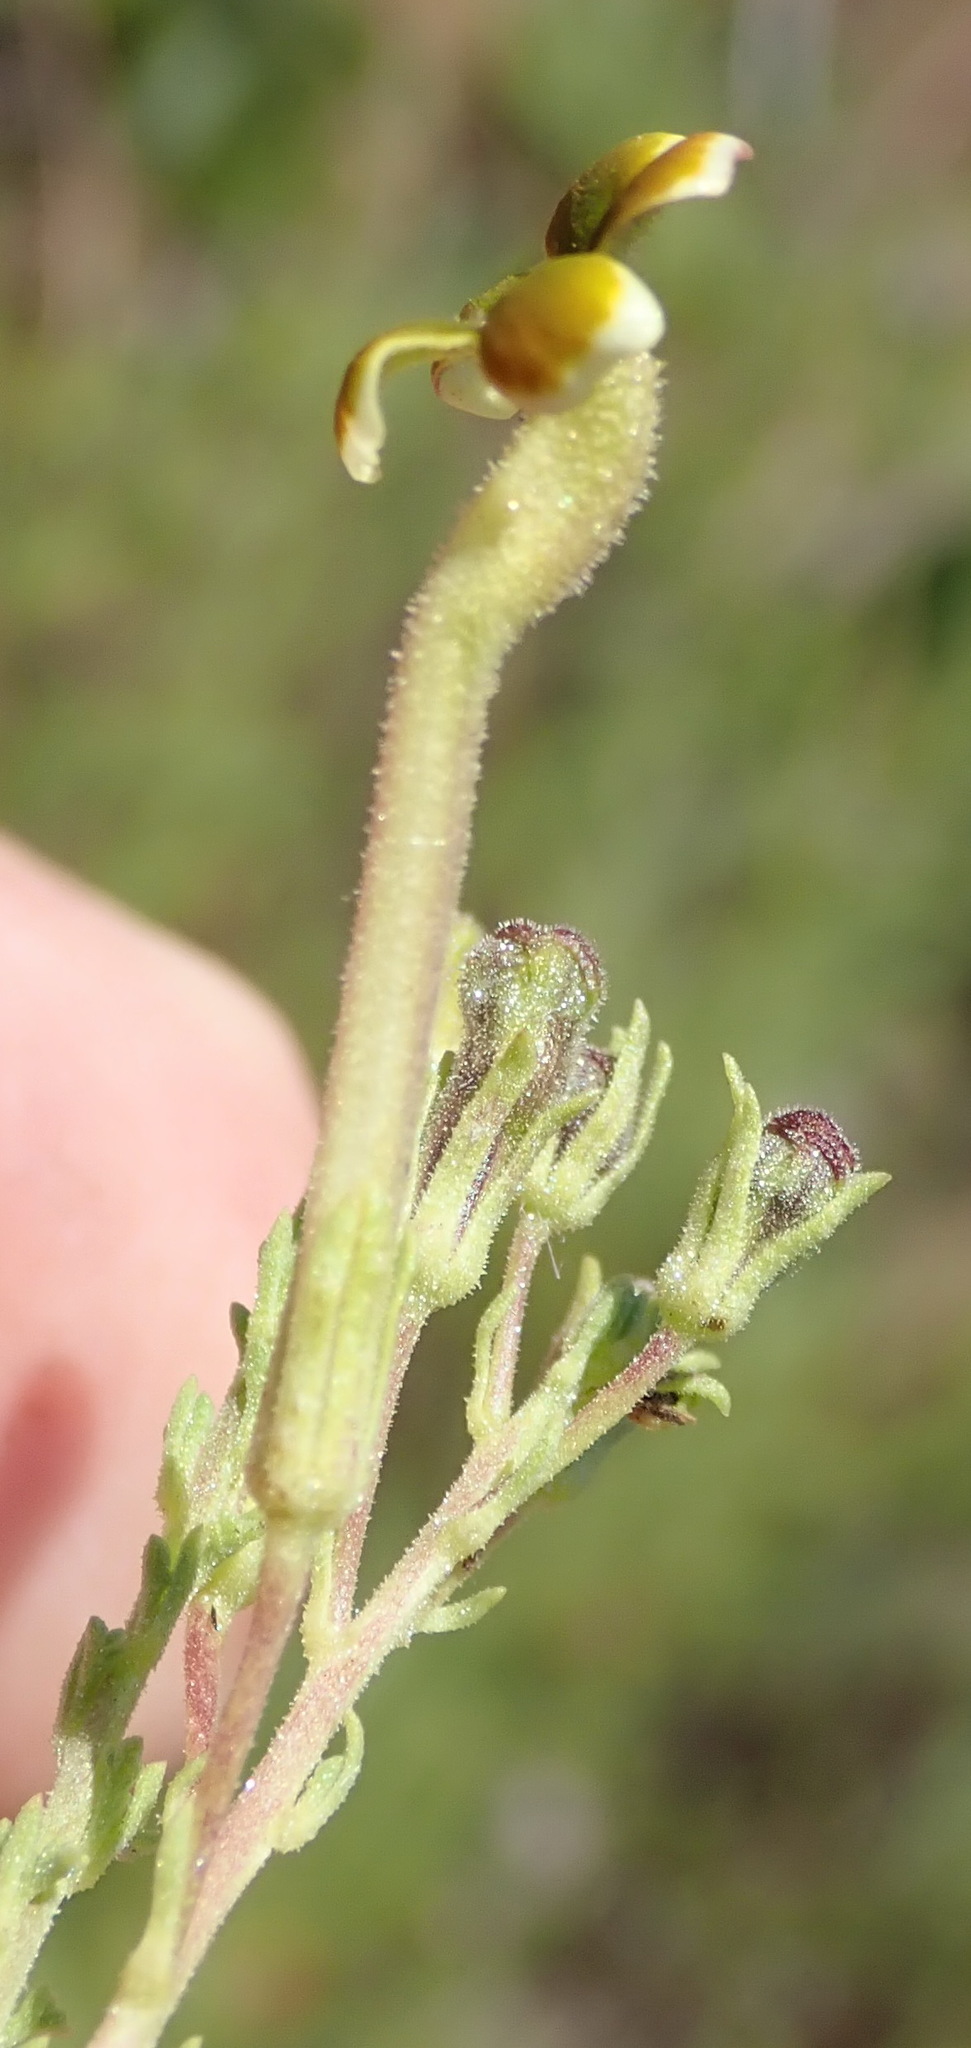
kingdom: Plantae
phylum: Tracheophyta
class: Magnoliopsida
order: Lamiales
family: Scrophulariaceae
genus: Jamesbrittenia
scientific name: Jamesbrittenia burkeana
